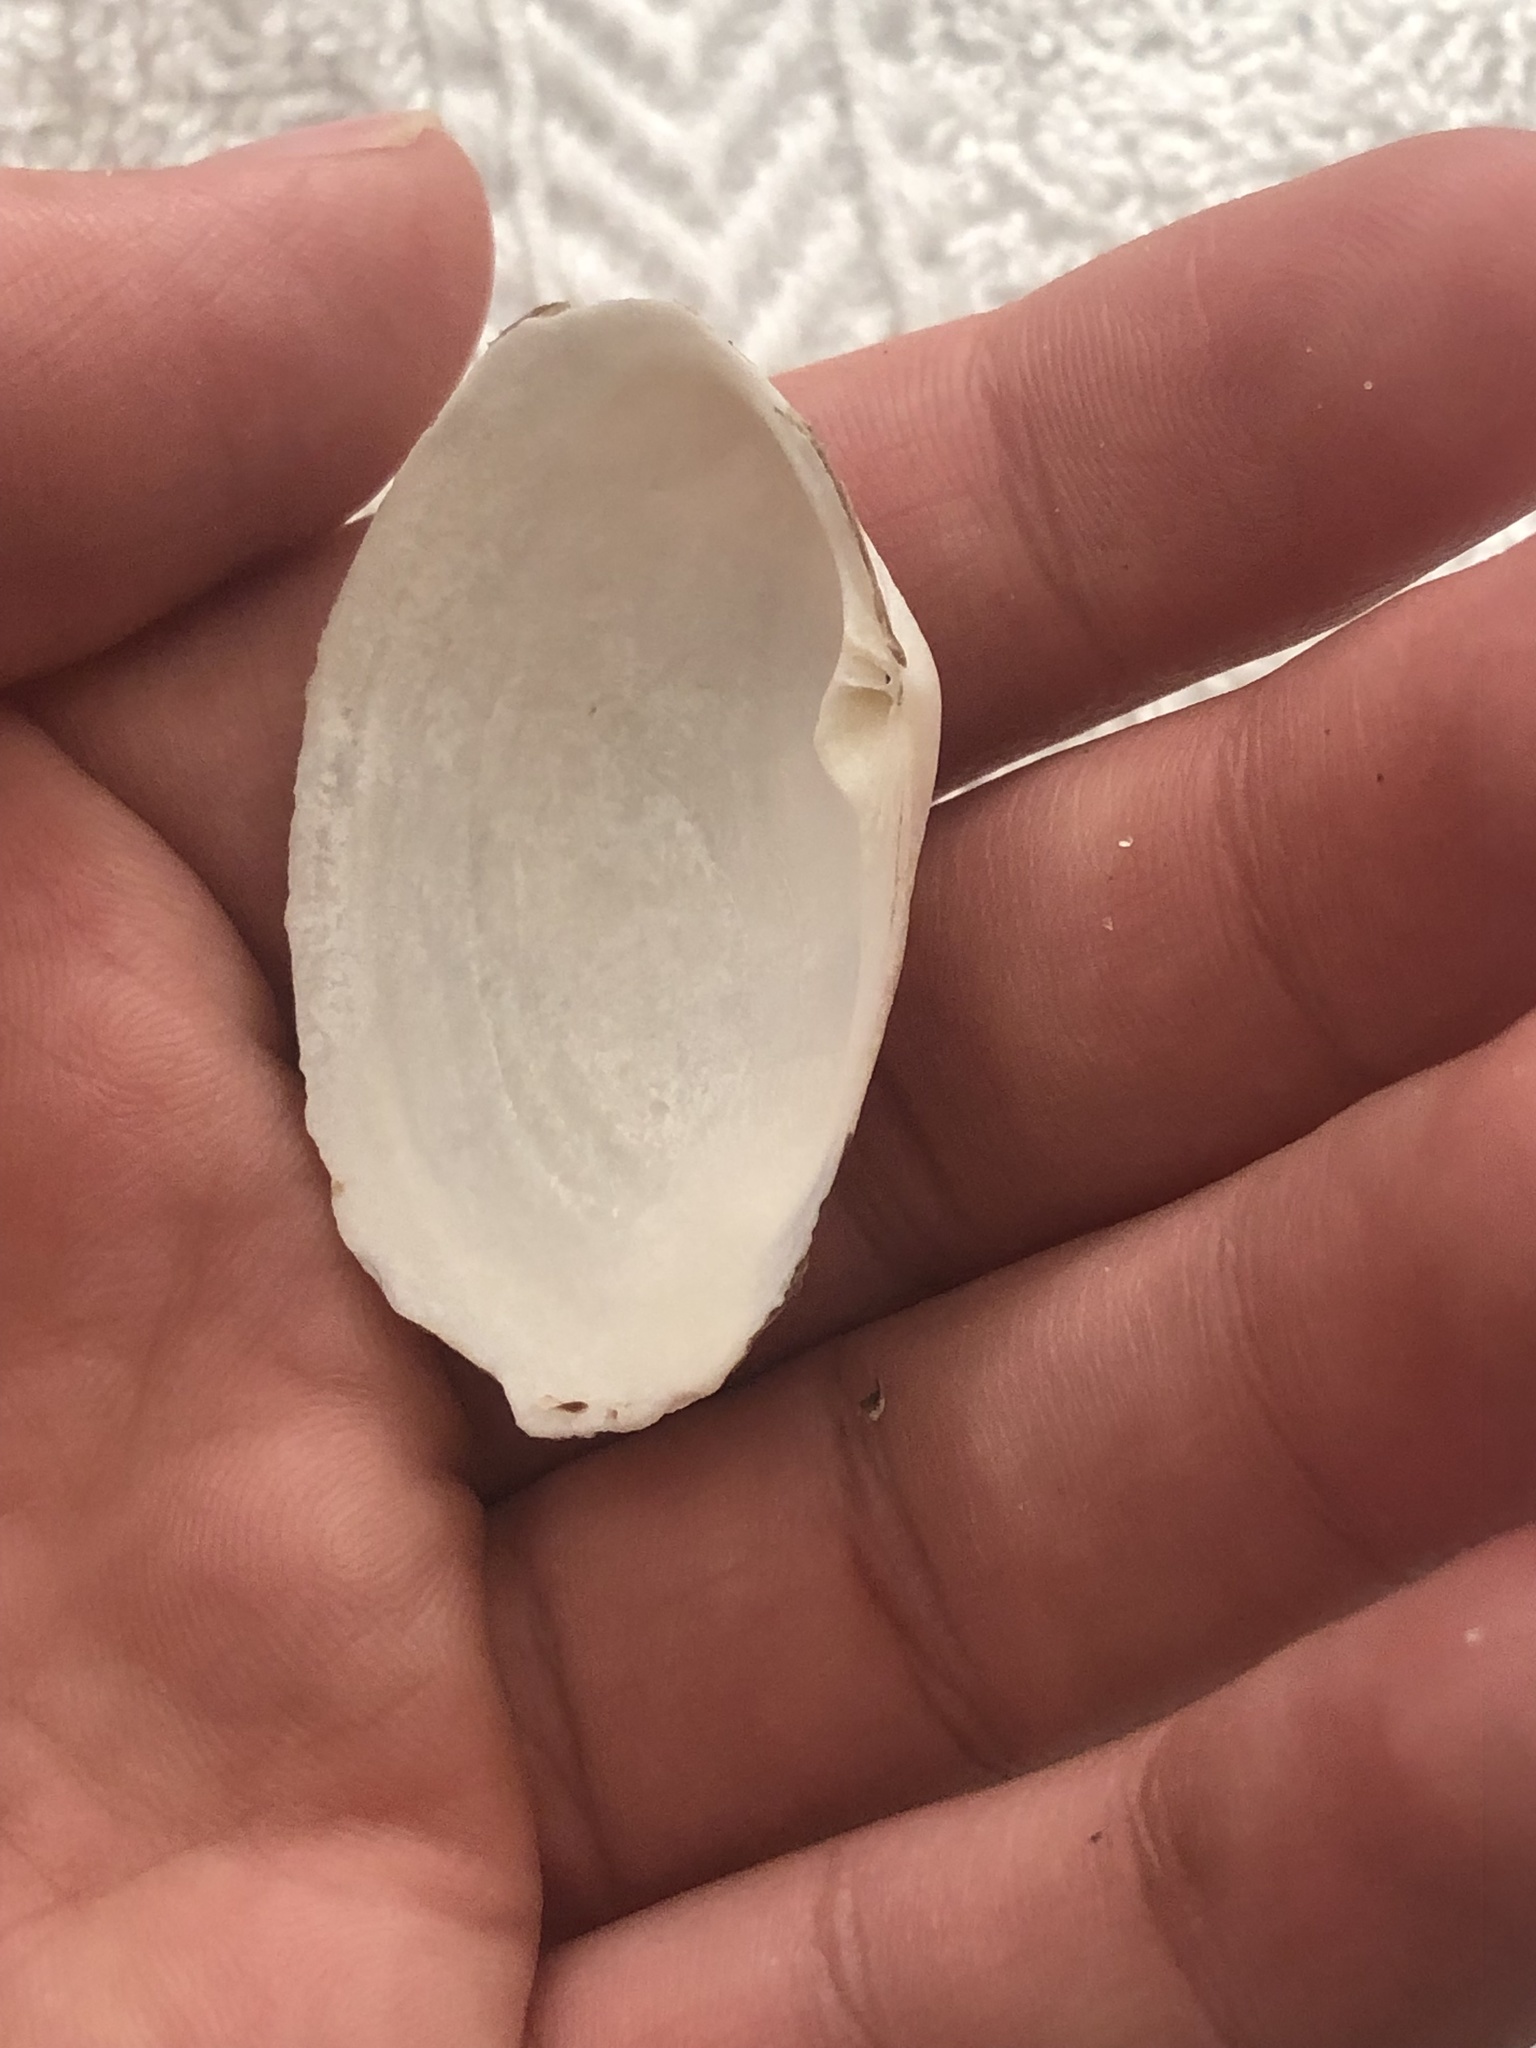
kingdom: Animalia
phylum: Mollusca
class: Bivalvia
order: Venerida
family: Mactridae
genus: Tresus
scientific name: Tresus nuttallii
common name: Pacific gaper clam
